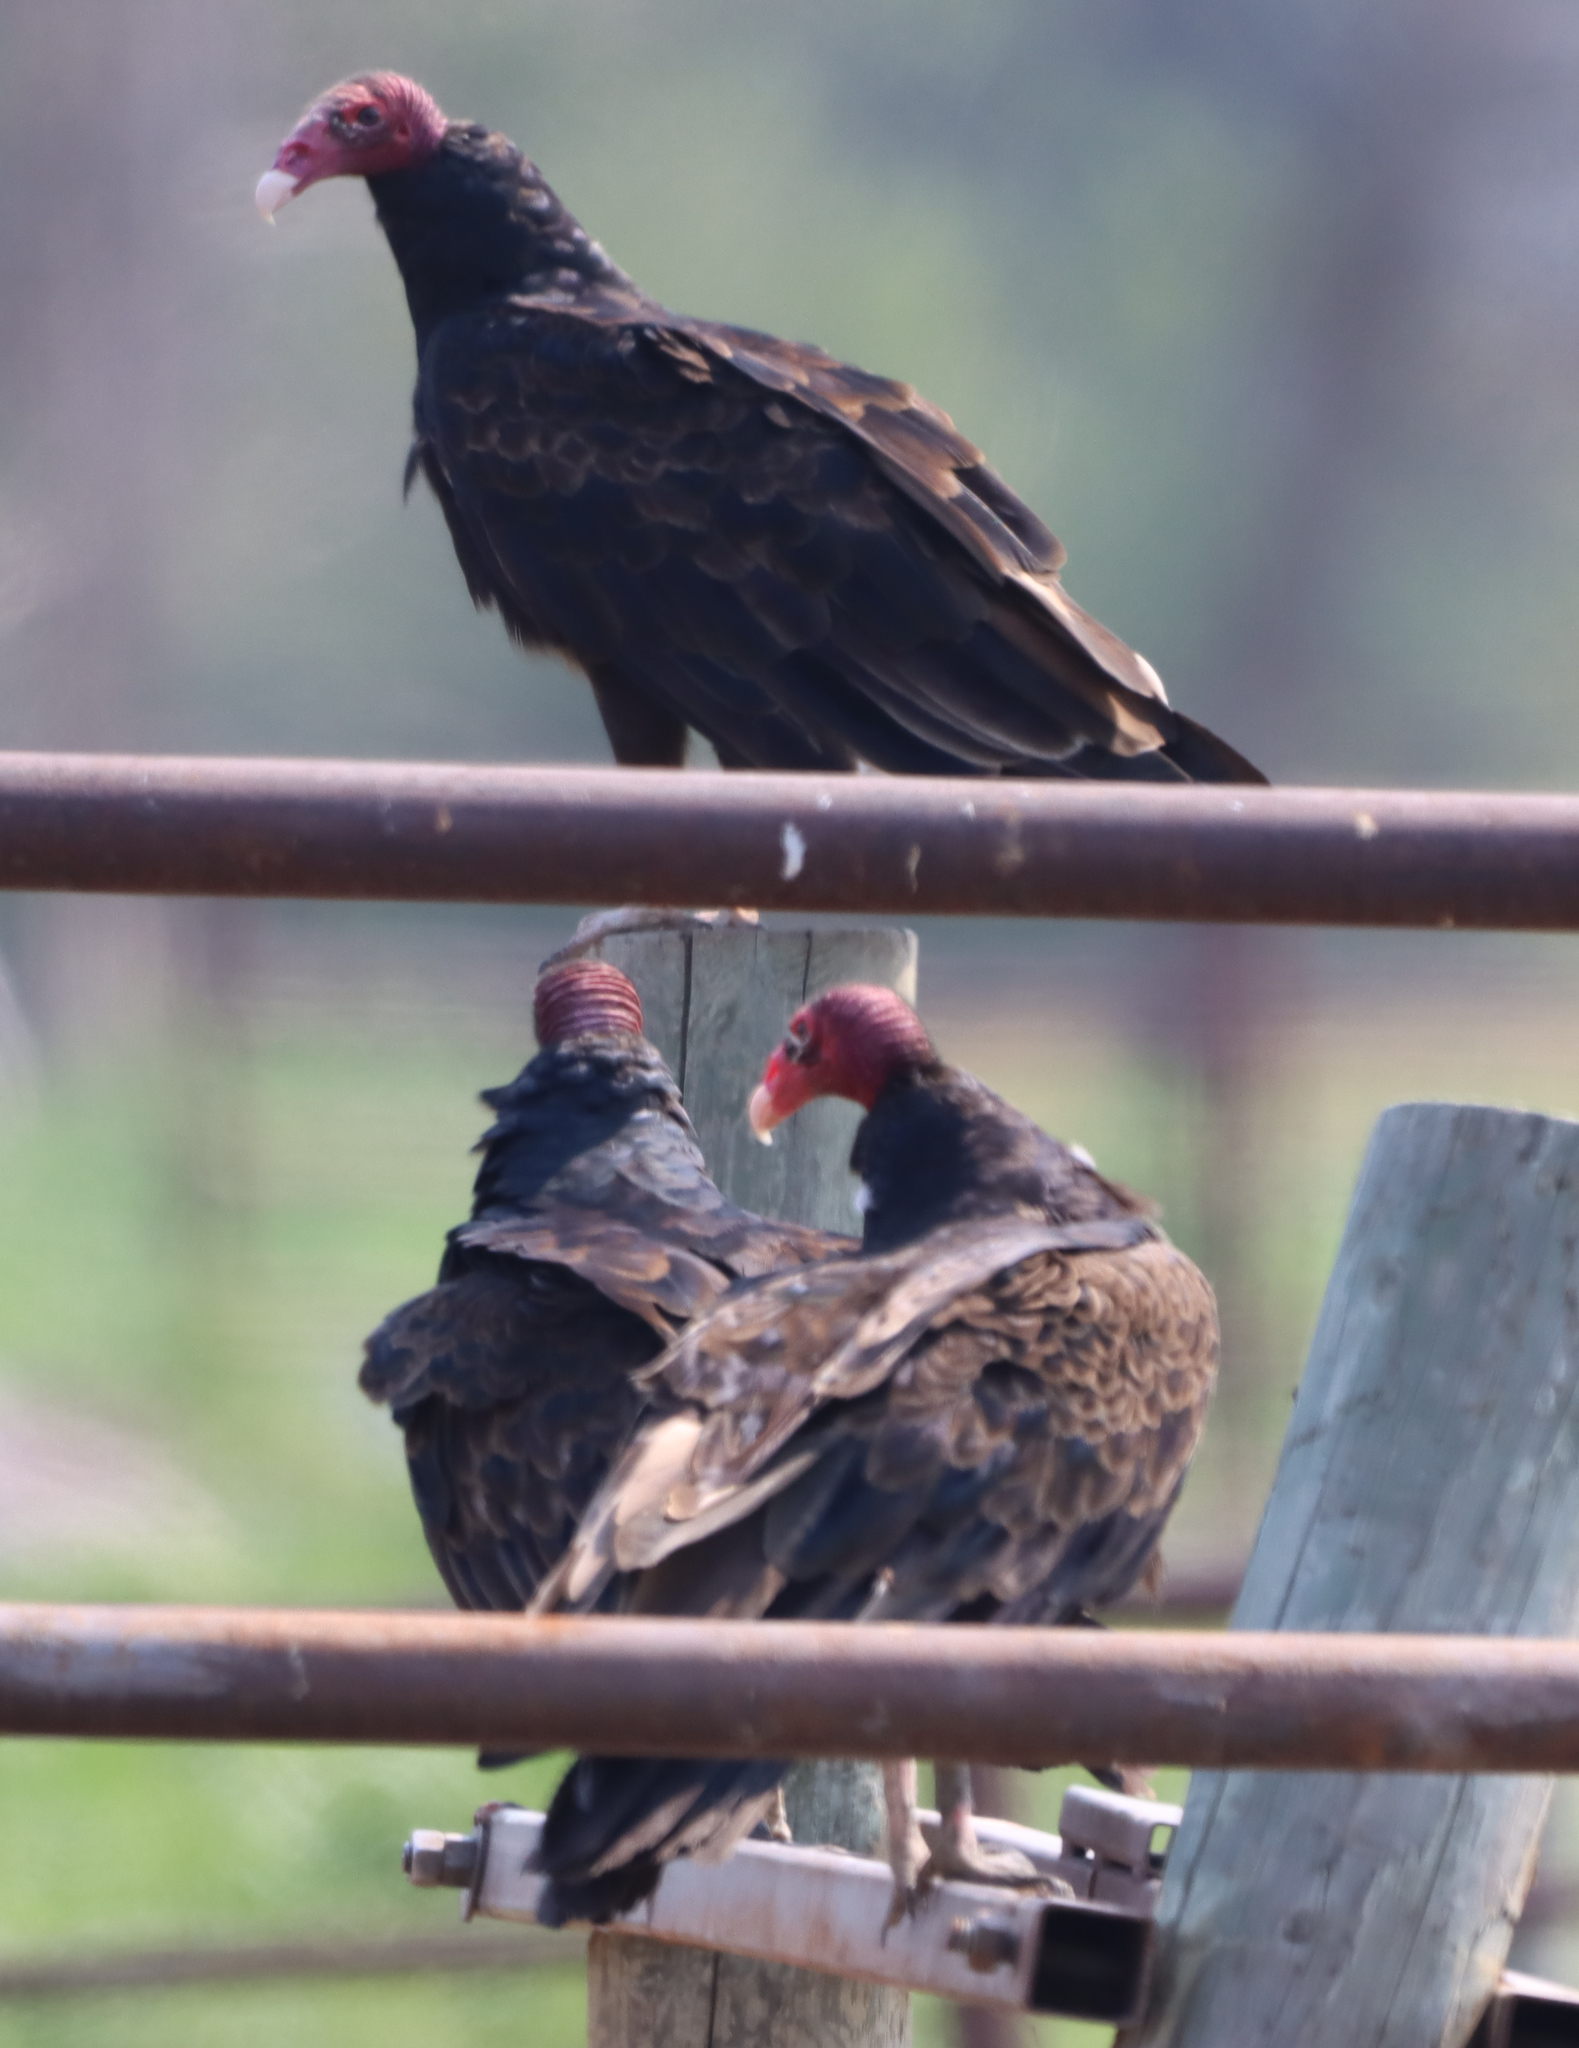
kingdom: Animalia
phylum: Chordata
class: Aves
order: Accipitriformes
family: Cathartidae
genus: Cathartes
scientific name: Cathartes aura
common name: Turkey vulture
